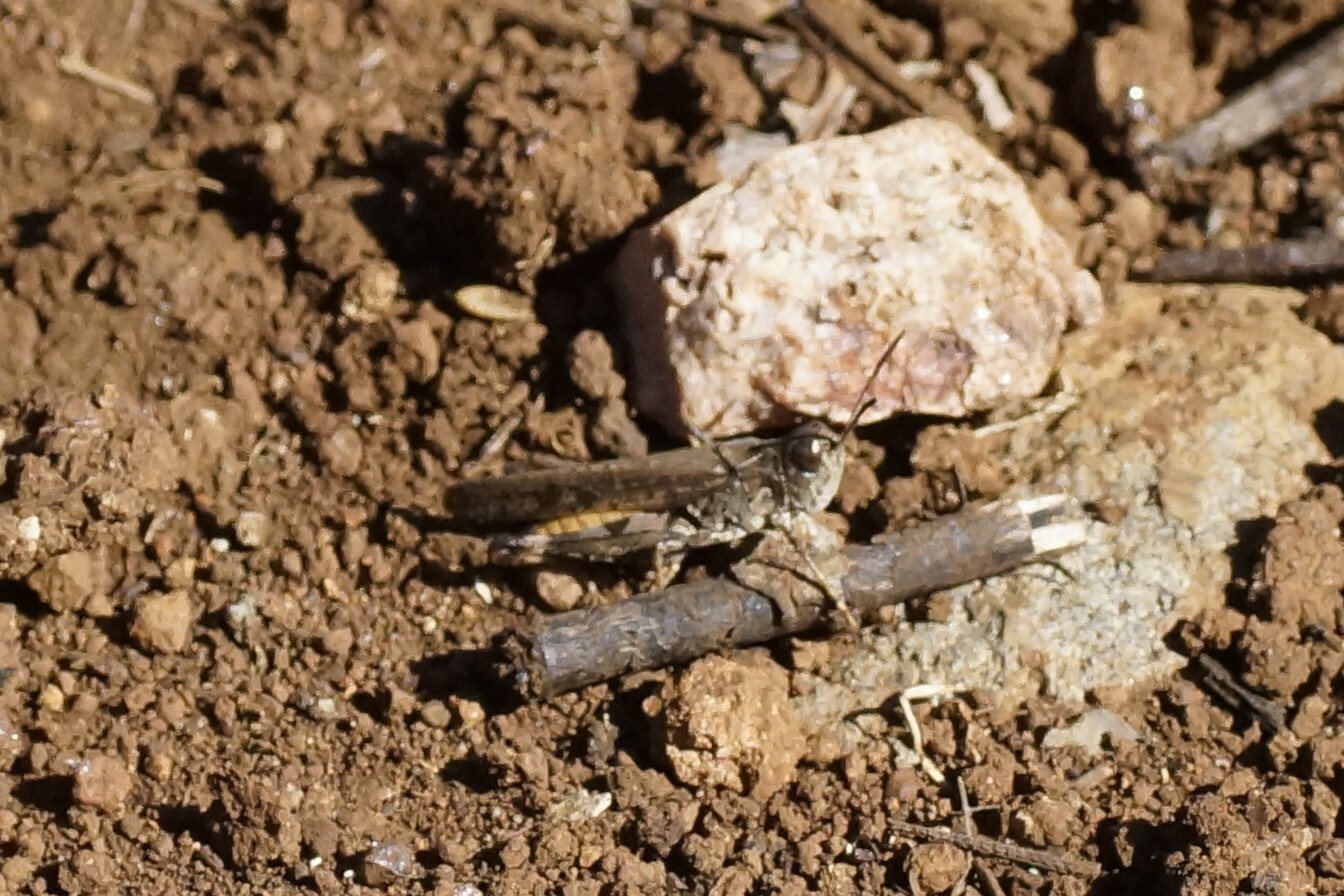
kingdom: Animalia
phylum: Arthropoda
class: Insecta
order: Orthoptera
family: Acrididae
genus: Austroicetes
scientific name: Austroicetes vulgaris
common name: Southeastern austroicetes
